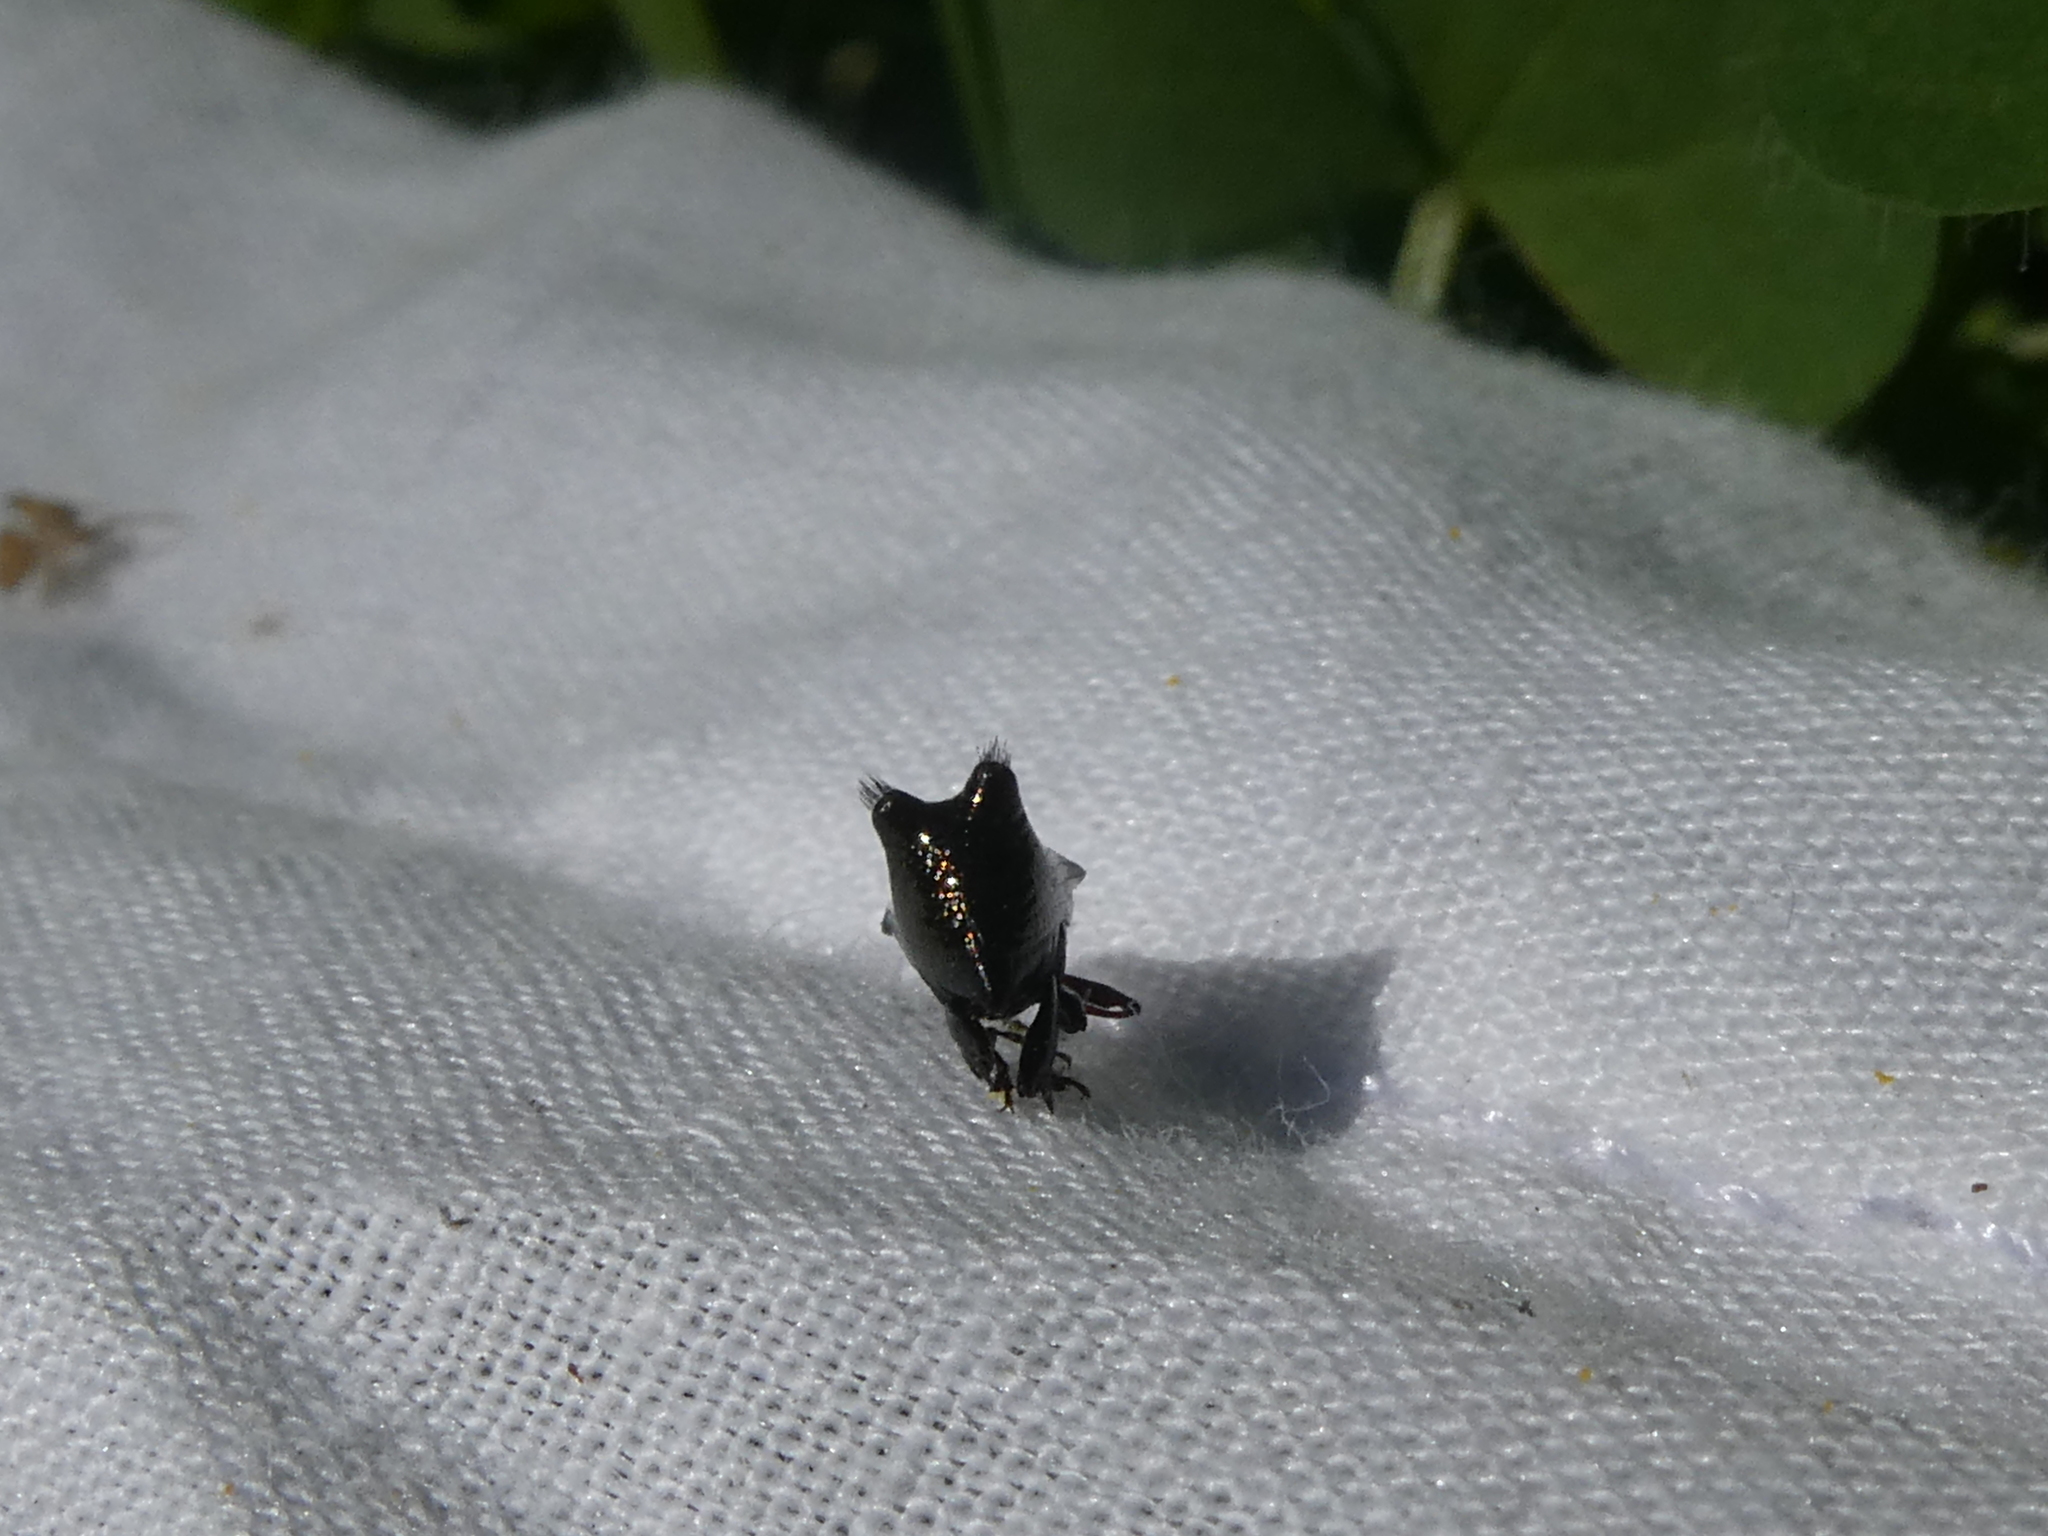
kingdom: Animalia
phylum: Arthropoda
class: Insecta
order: Coleoptera
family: Curculionidae
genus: Scolopterus
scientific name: Scolopterus penicillatus
